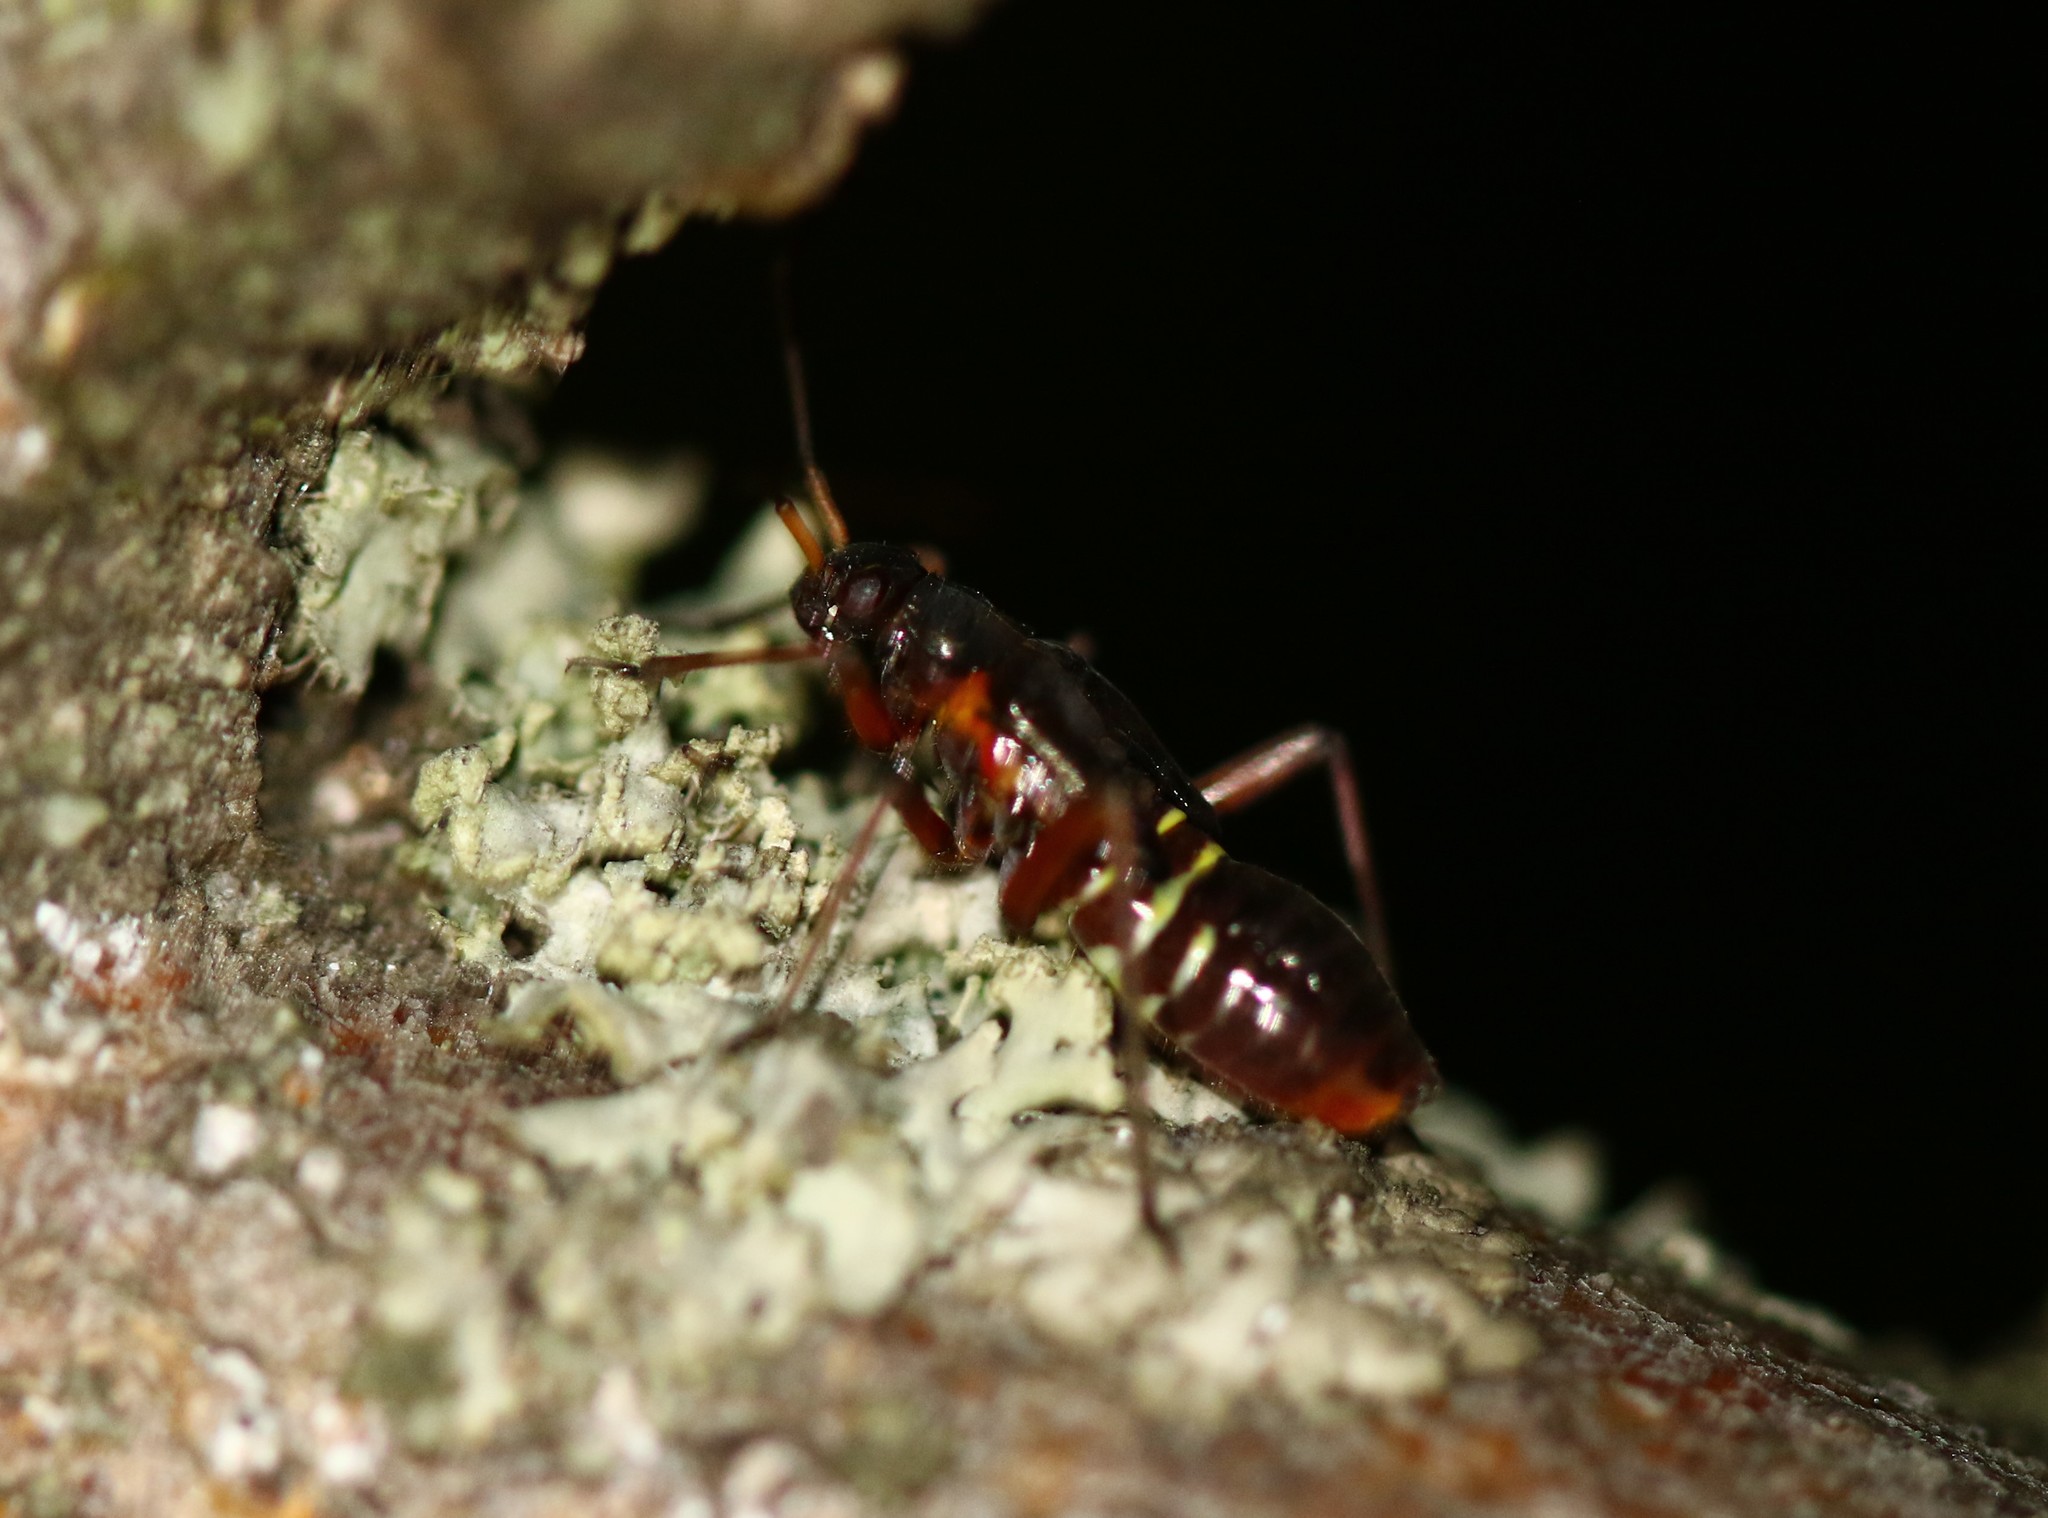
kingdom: Animalia
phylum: Arthropoda
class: Insecta
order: Hemiptera
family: Miridae
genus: Miris
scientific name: Miris striatus
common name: Fine streaked bugkin
